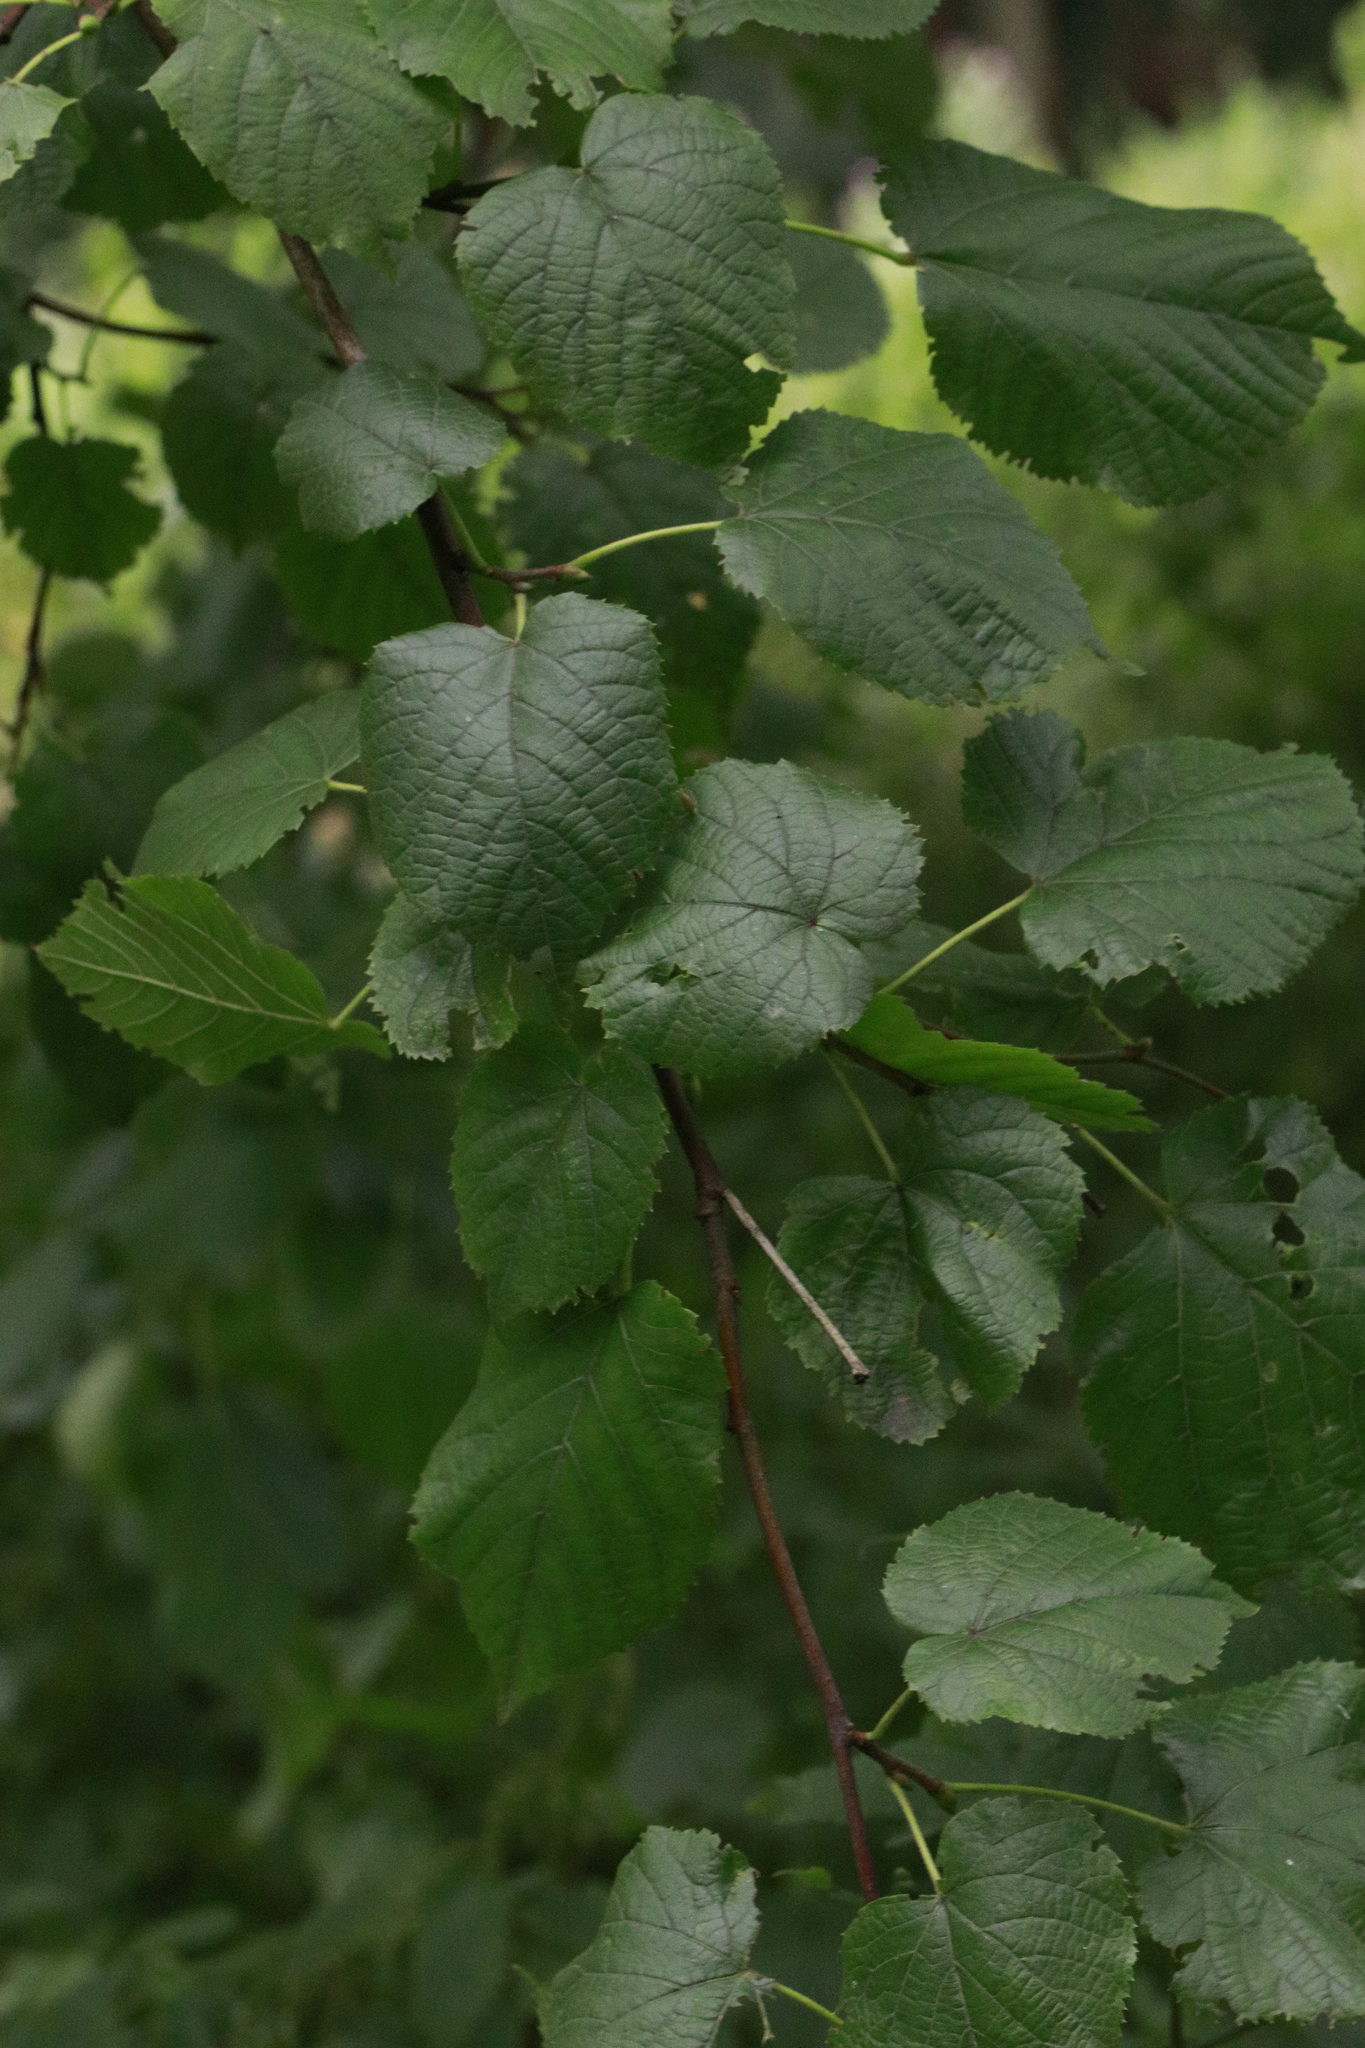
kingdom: Plantae
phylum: Tracheophyta
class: Magnoliopsida
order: Fagales
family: Betulaceae
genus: Corylus
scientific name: Corylus avellana
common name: European hazel
